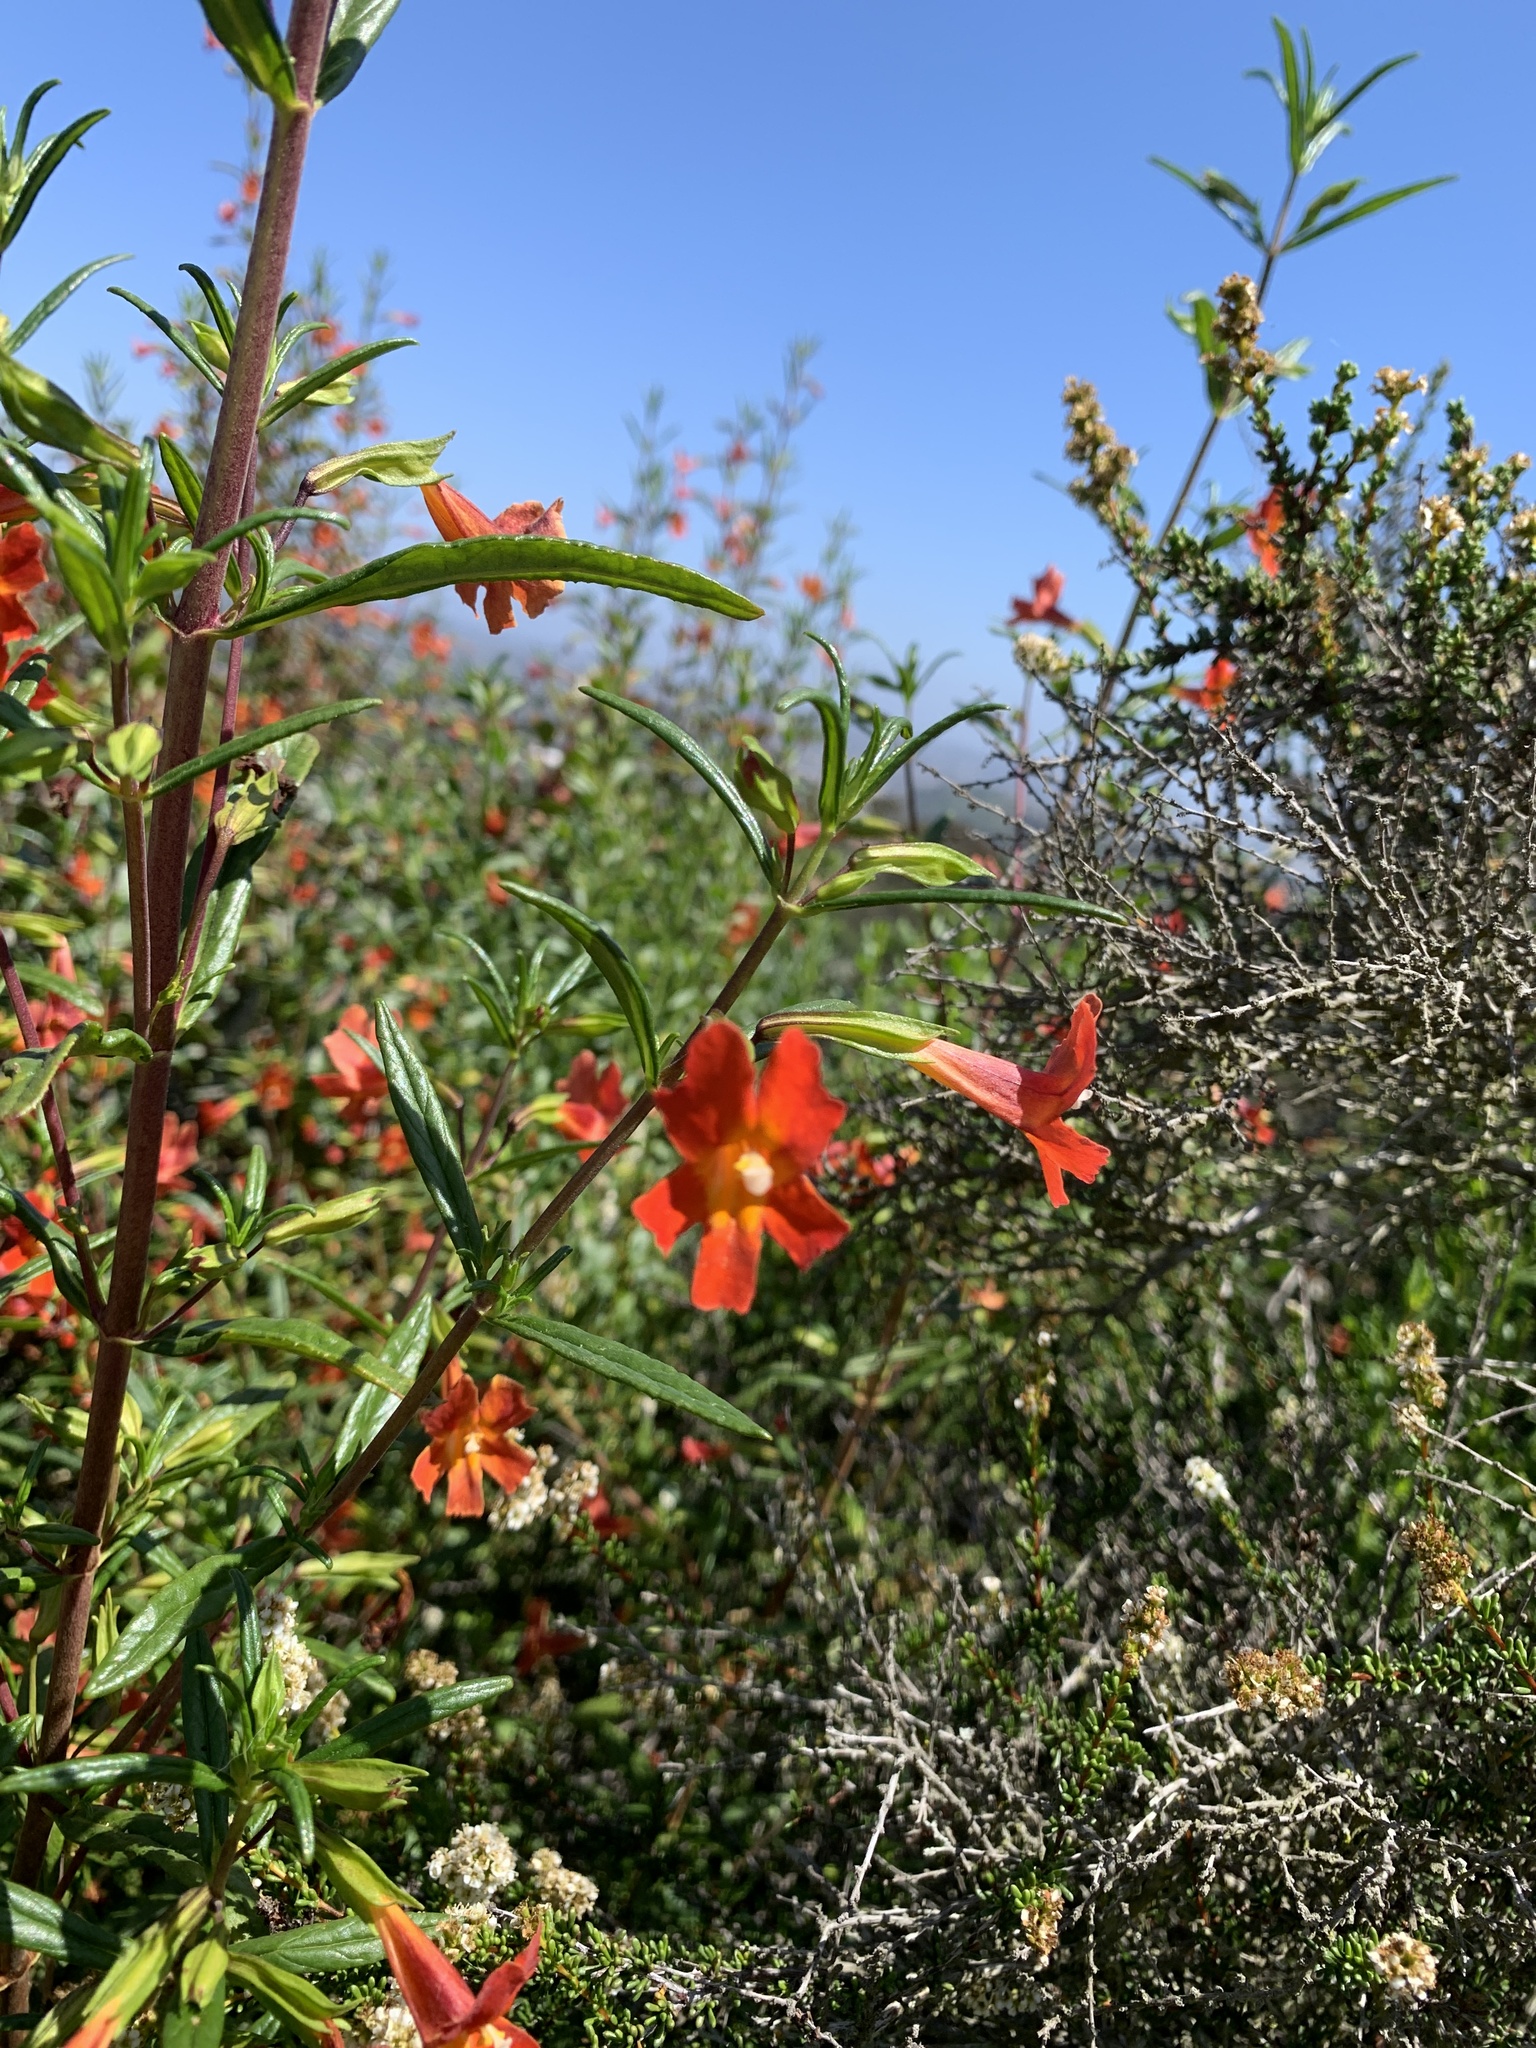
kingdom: Plantae
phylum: Tracheophyta
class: Magnoliopsida
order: Lamiales
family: Phrymaceae
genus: Diplacus
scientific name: Diplacus puniceus
